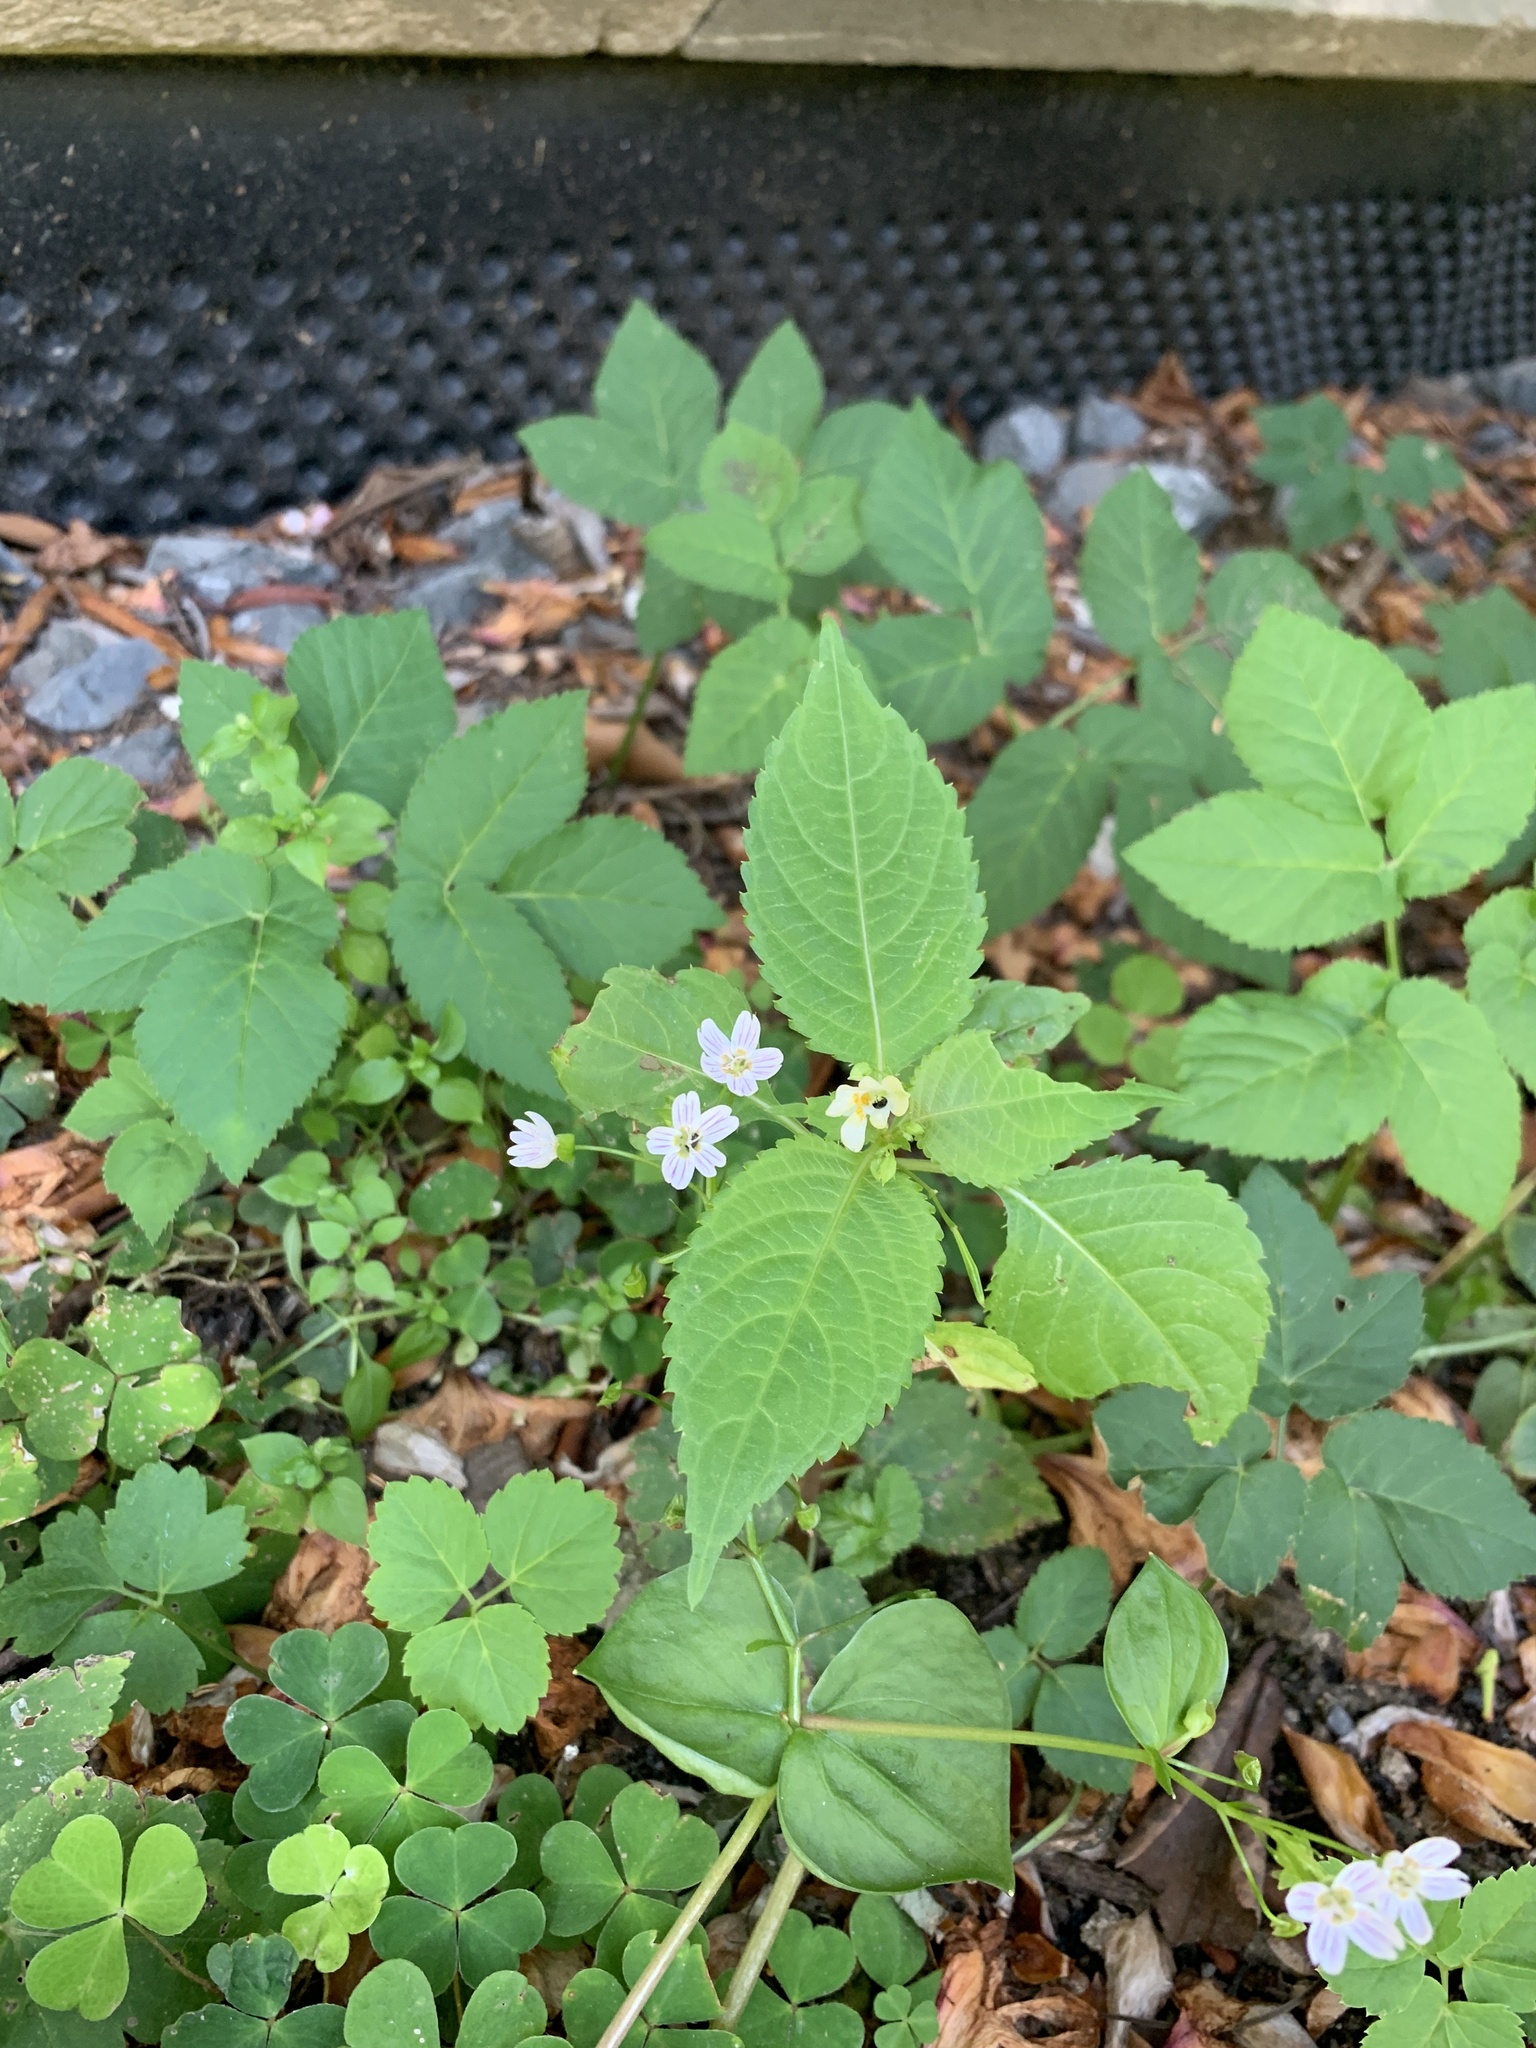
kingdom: Plantae
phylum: Tracheophyta
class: Magnoliopsida
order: Ericales
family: Balsaminaceae
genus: Impatiens
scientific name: Impatiens parviflora
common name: Small balsam
